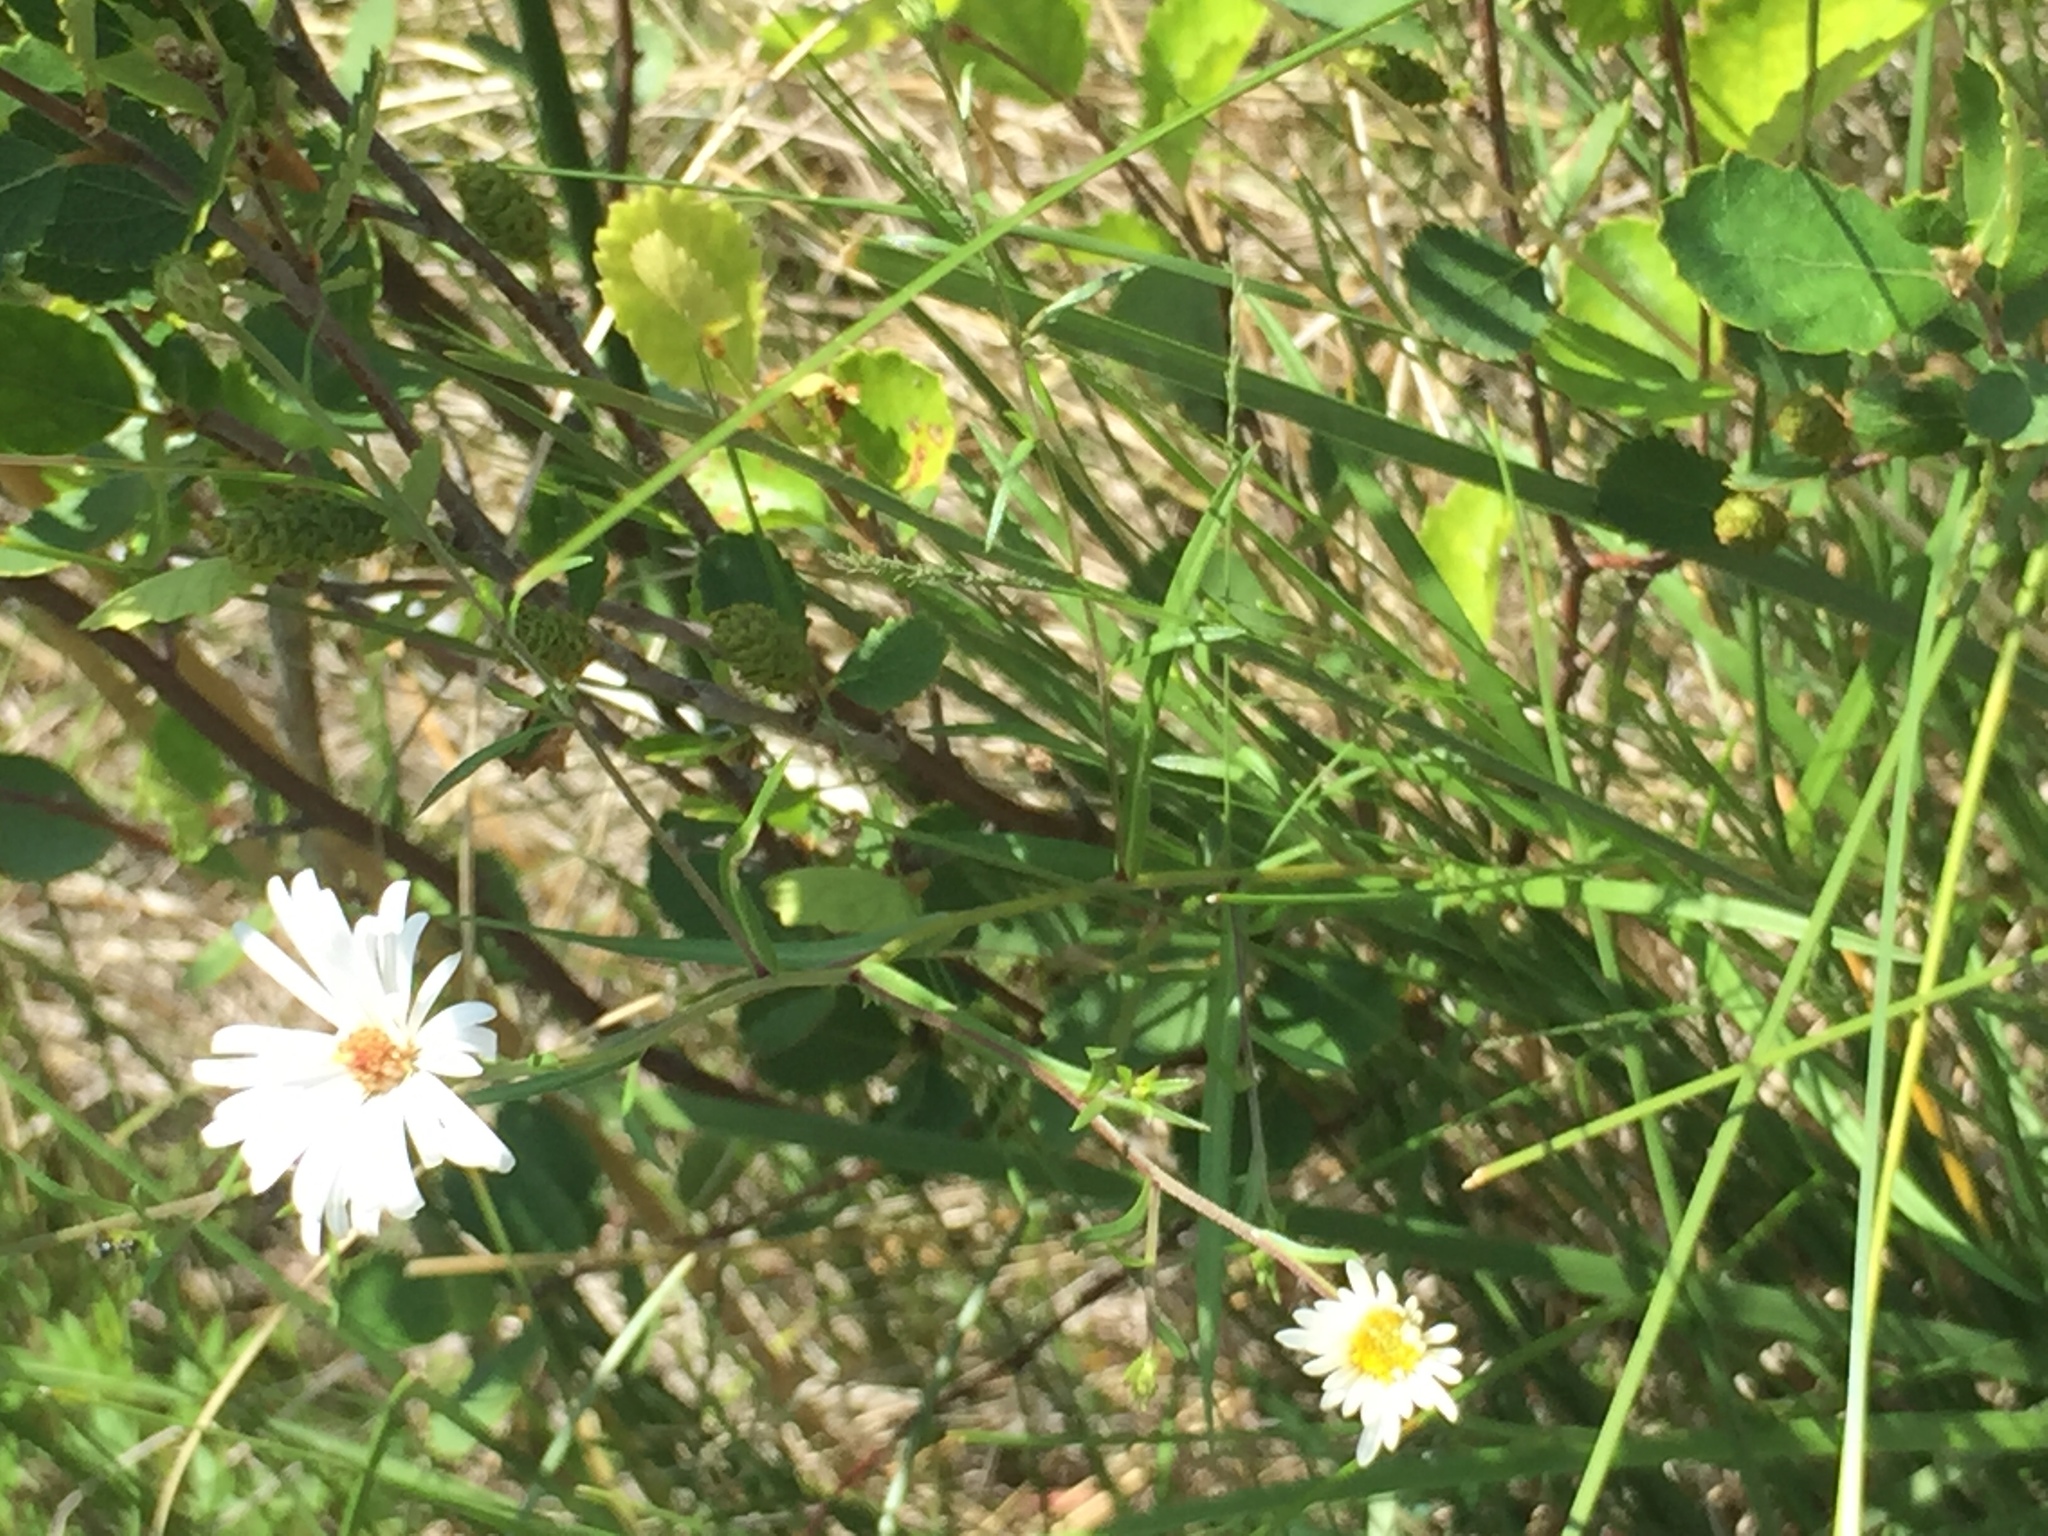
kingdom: Plantae
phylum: Tracheophyta
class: Magnoliopsida
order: Asterales
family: Asteraceae
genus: Symphyotrichum
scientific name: Symphyotrichum boreale
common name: Northern bog aster
